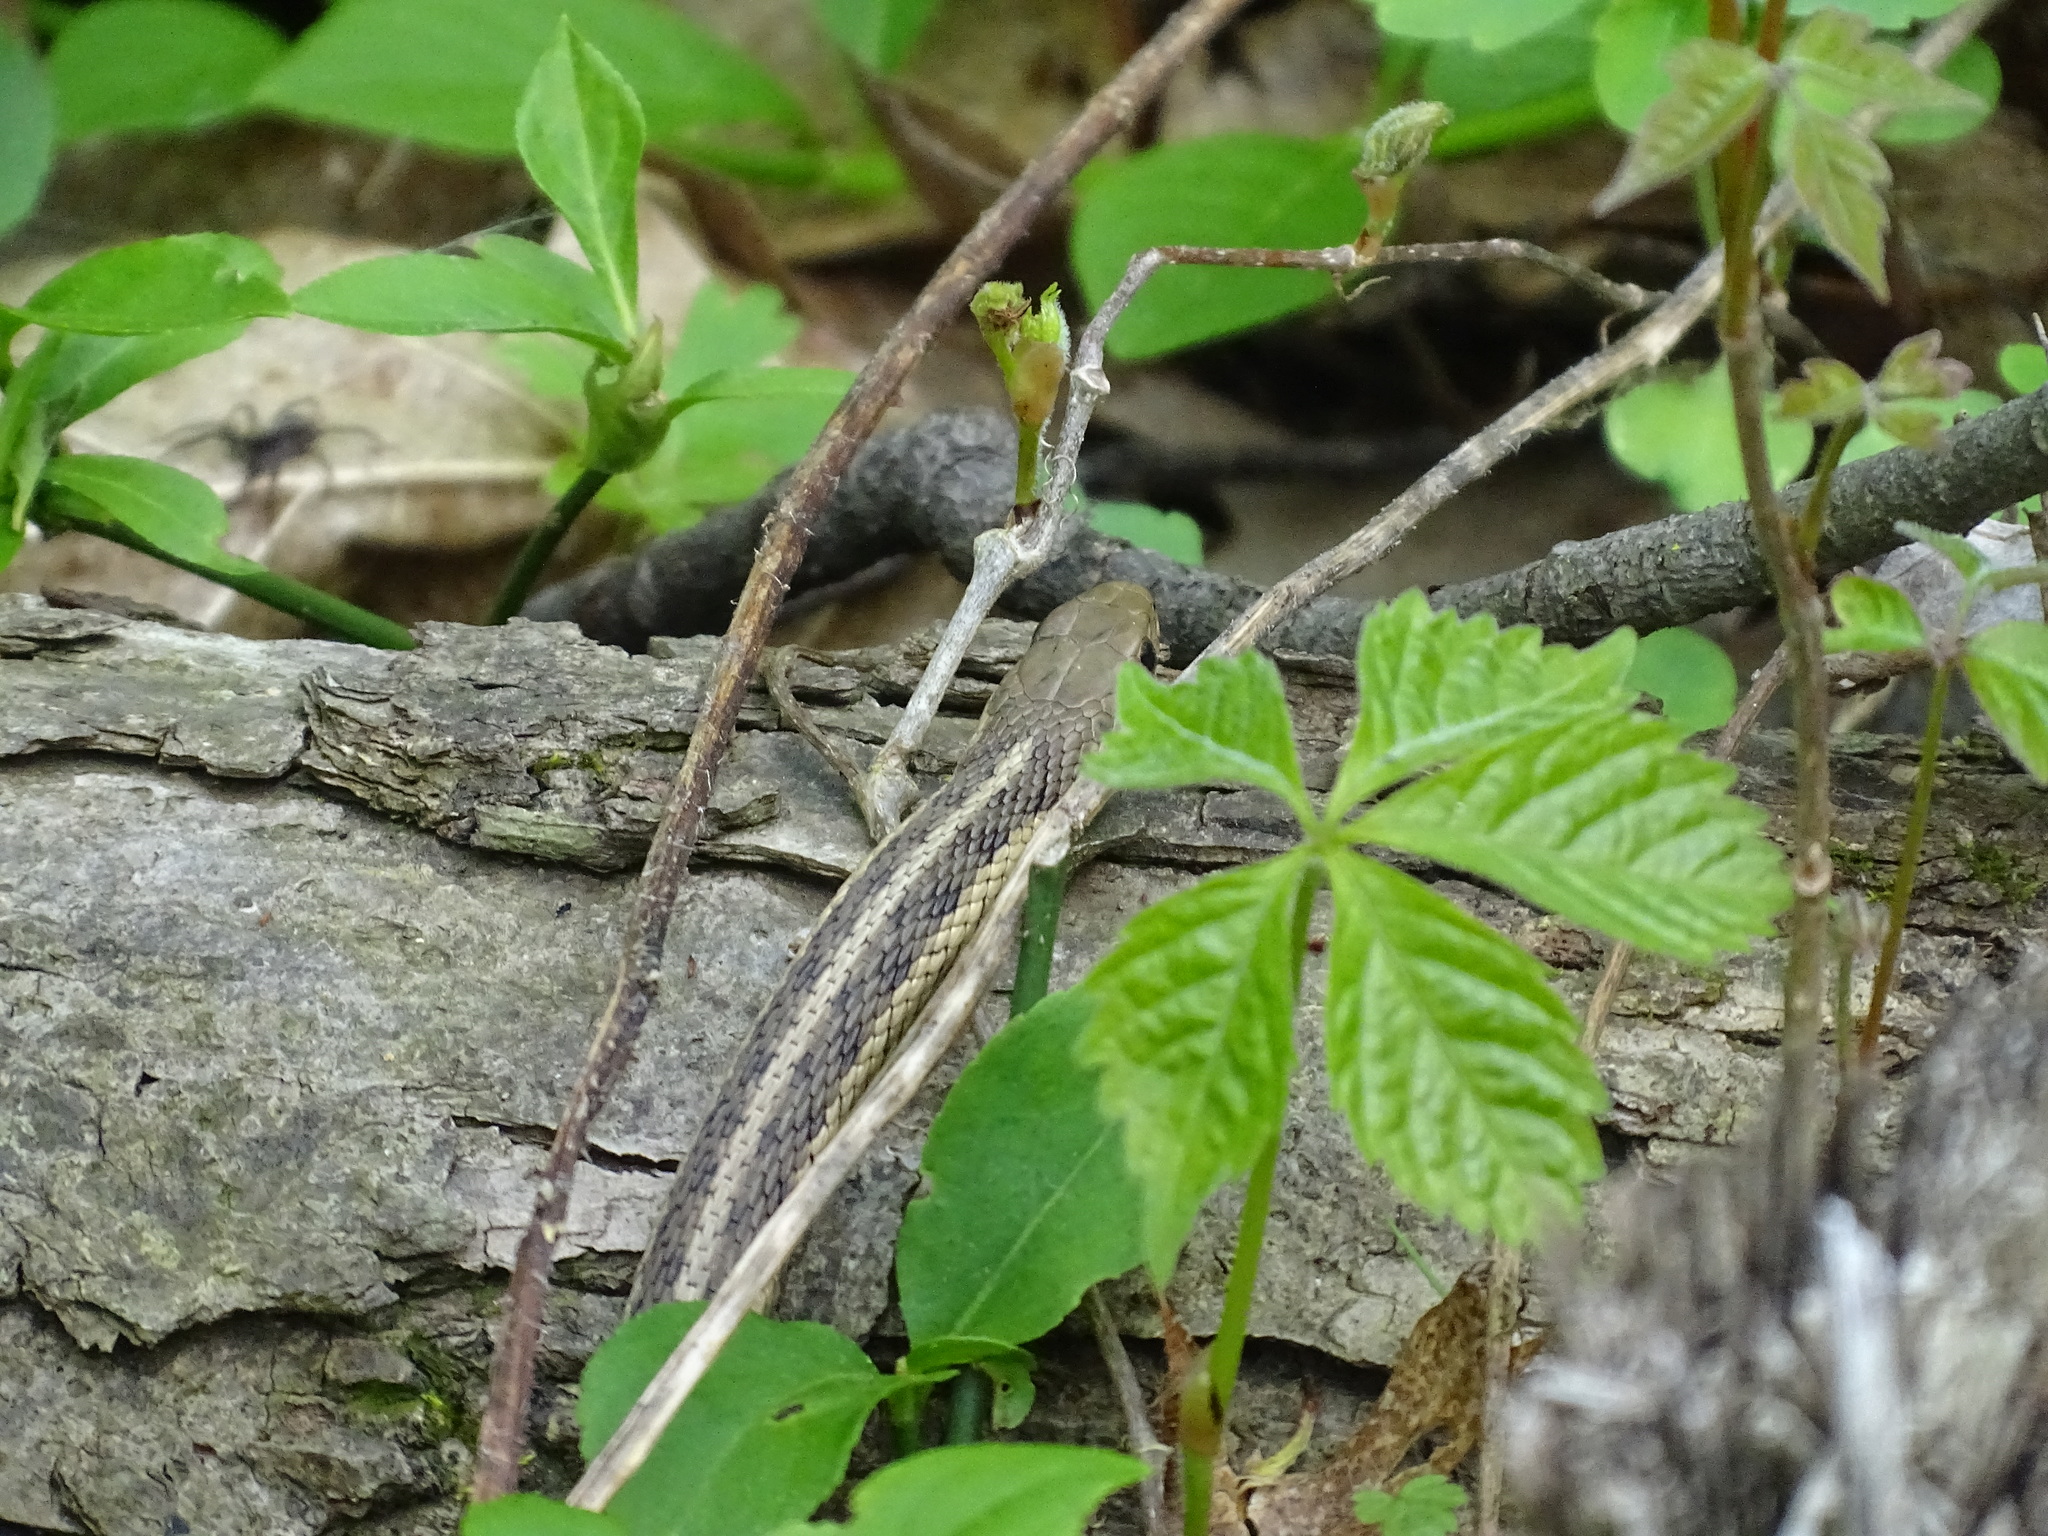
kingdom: Animalia
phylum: Chordata
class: Squamata
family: Colubridae
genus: Thamnophis
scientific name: Thamnophis sirtalis
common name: Common garter snake
